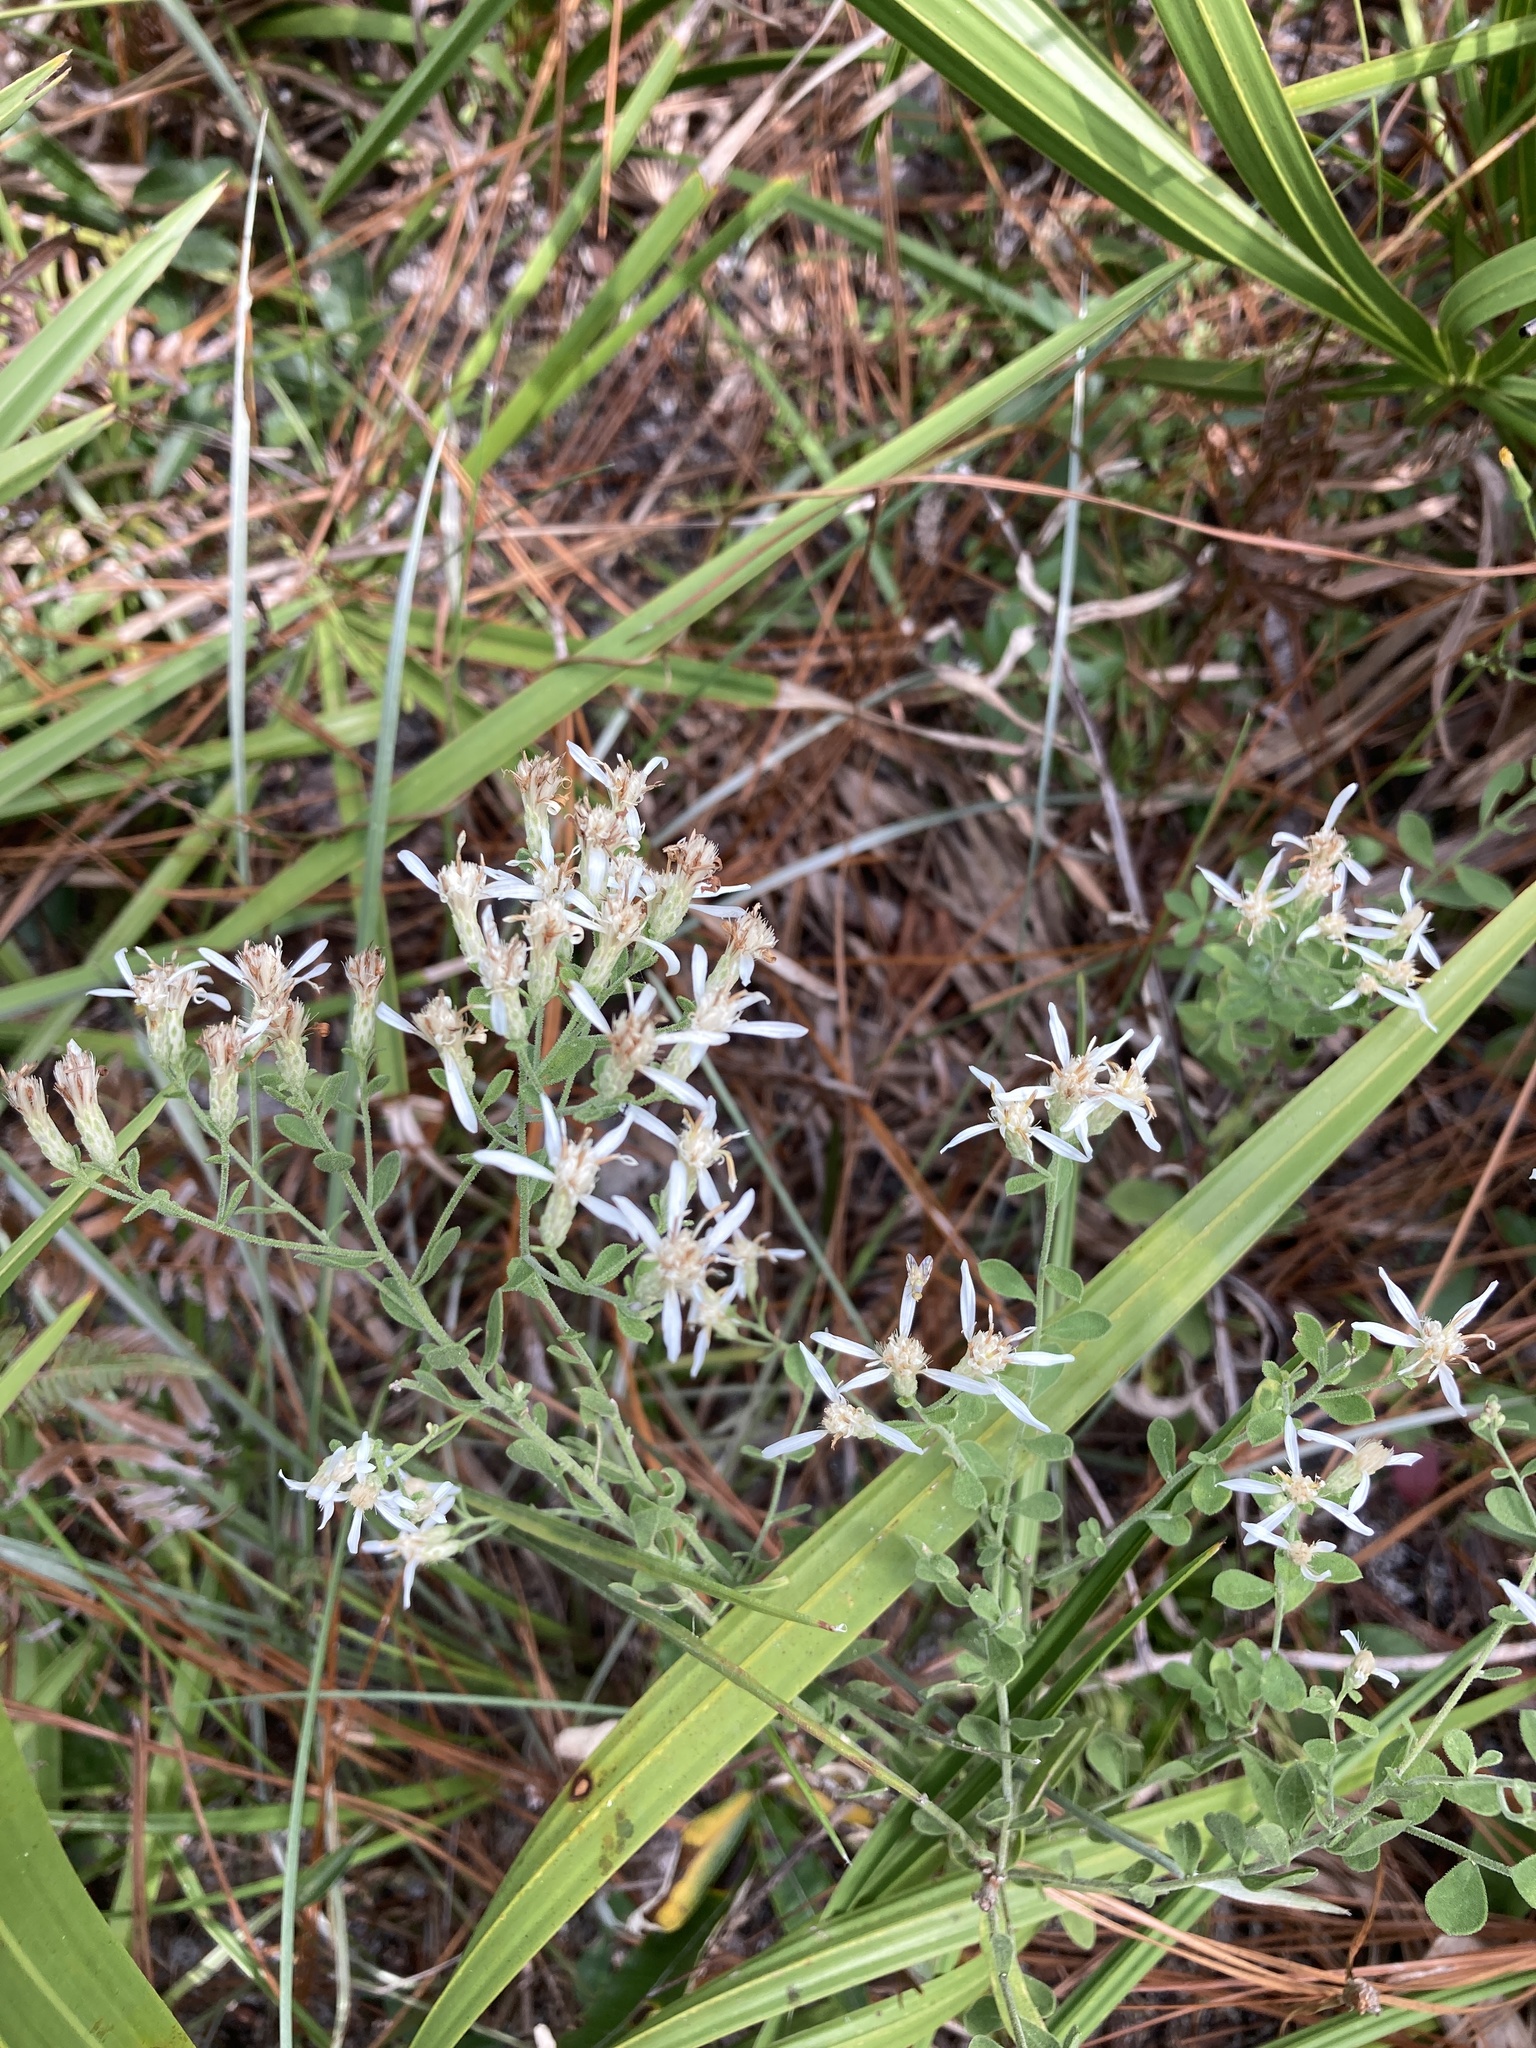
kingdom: Plantae
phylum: Tracheophyta
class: Magnoliopsida
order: Asterales
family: Asteraceae
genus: Sericocarpus
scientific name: Sericocarpus tortifolius
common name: Dixie aster
